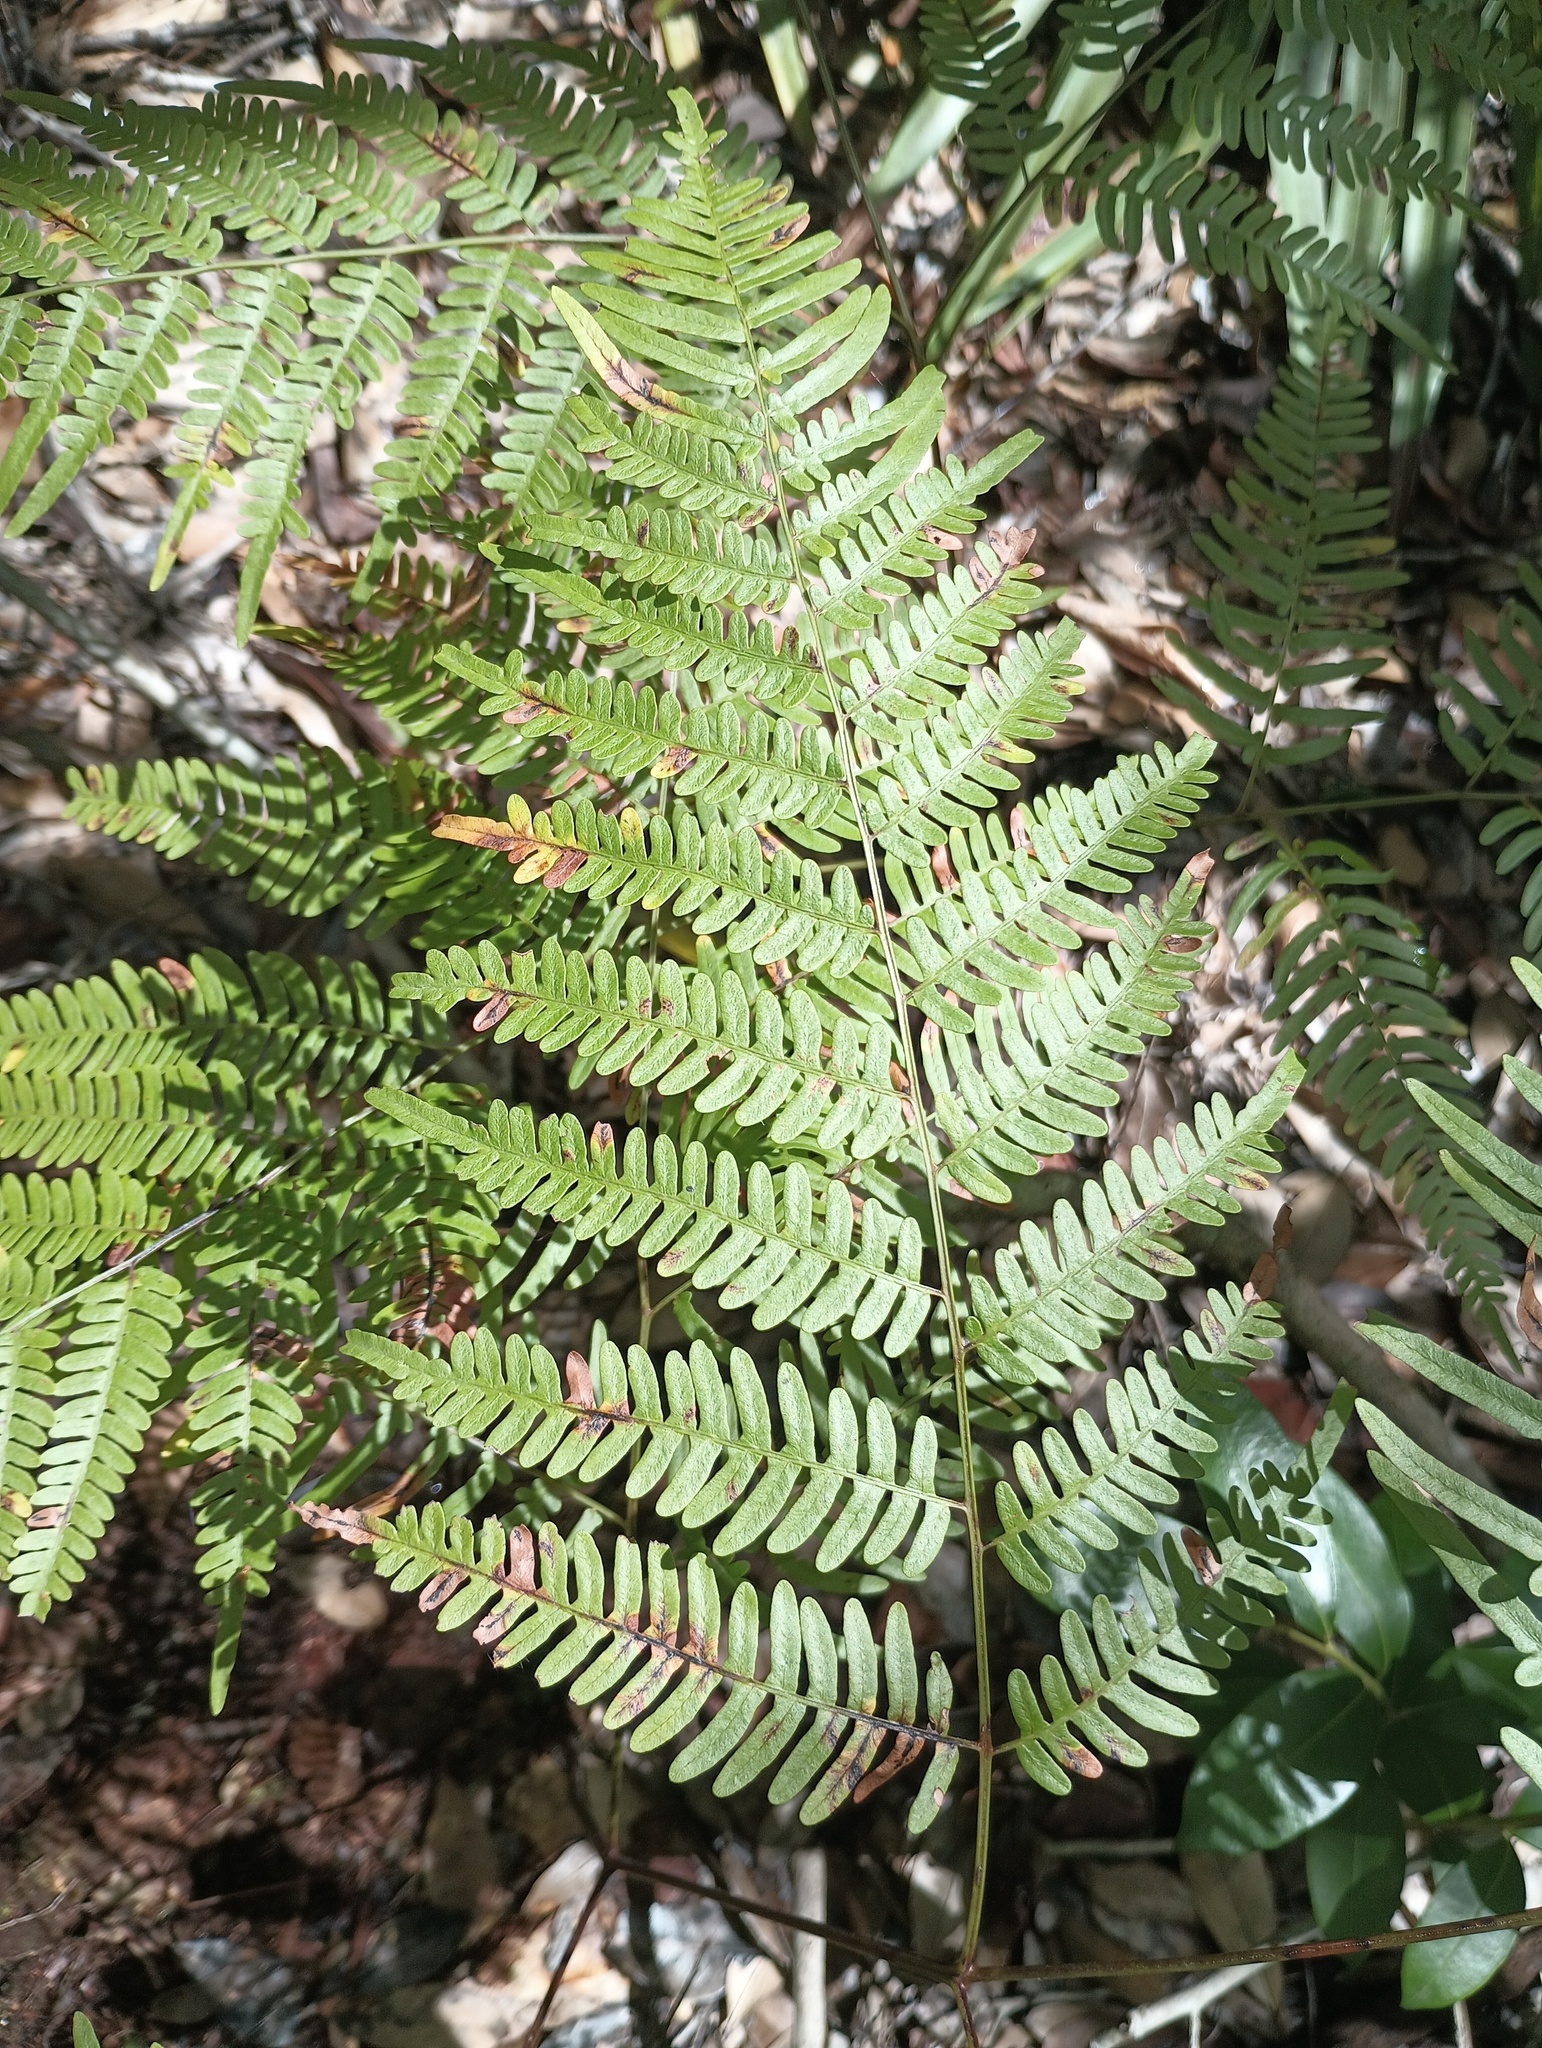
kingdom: Plantae
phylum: Tracheophyta
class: Polypodiopsida
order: Polypodiales
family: Dennstaedtiaceae
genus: Pteridium
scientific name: Pteridium aquilinum
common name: Bracken
